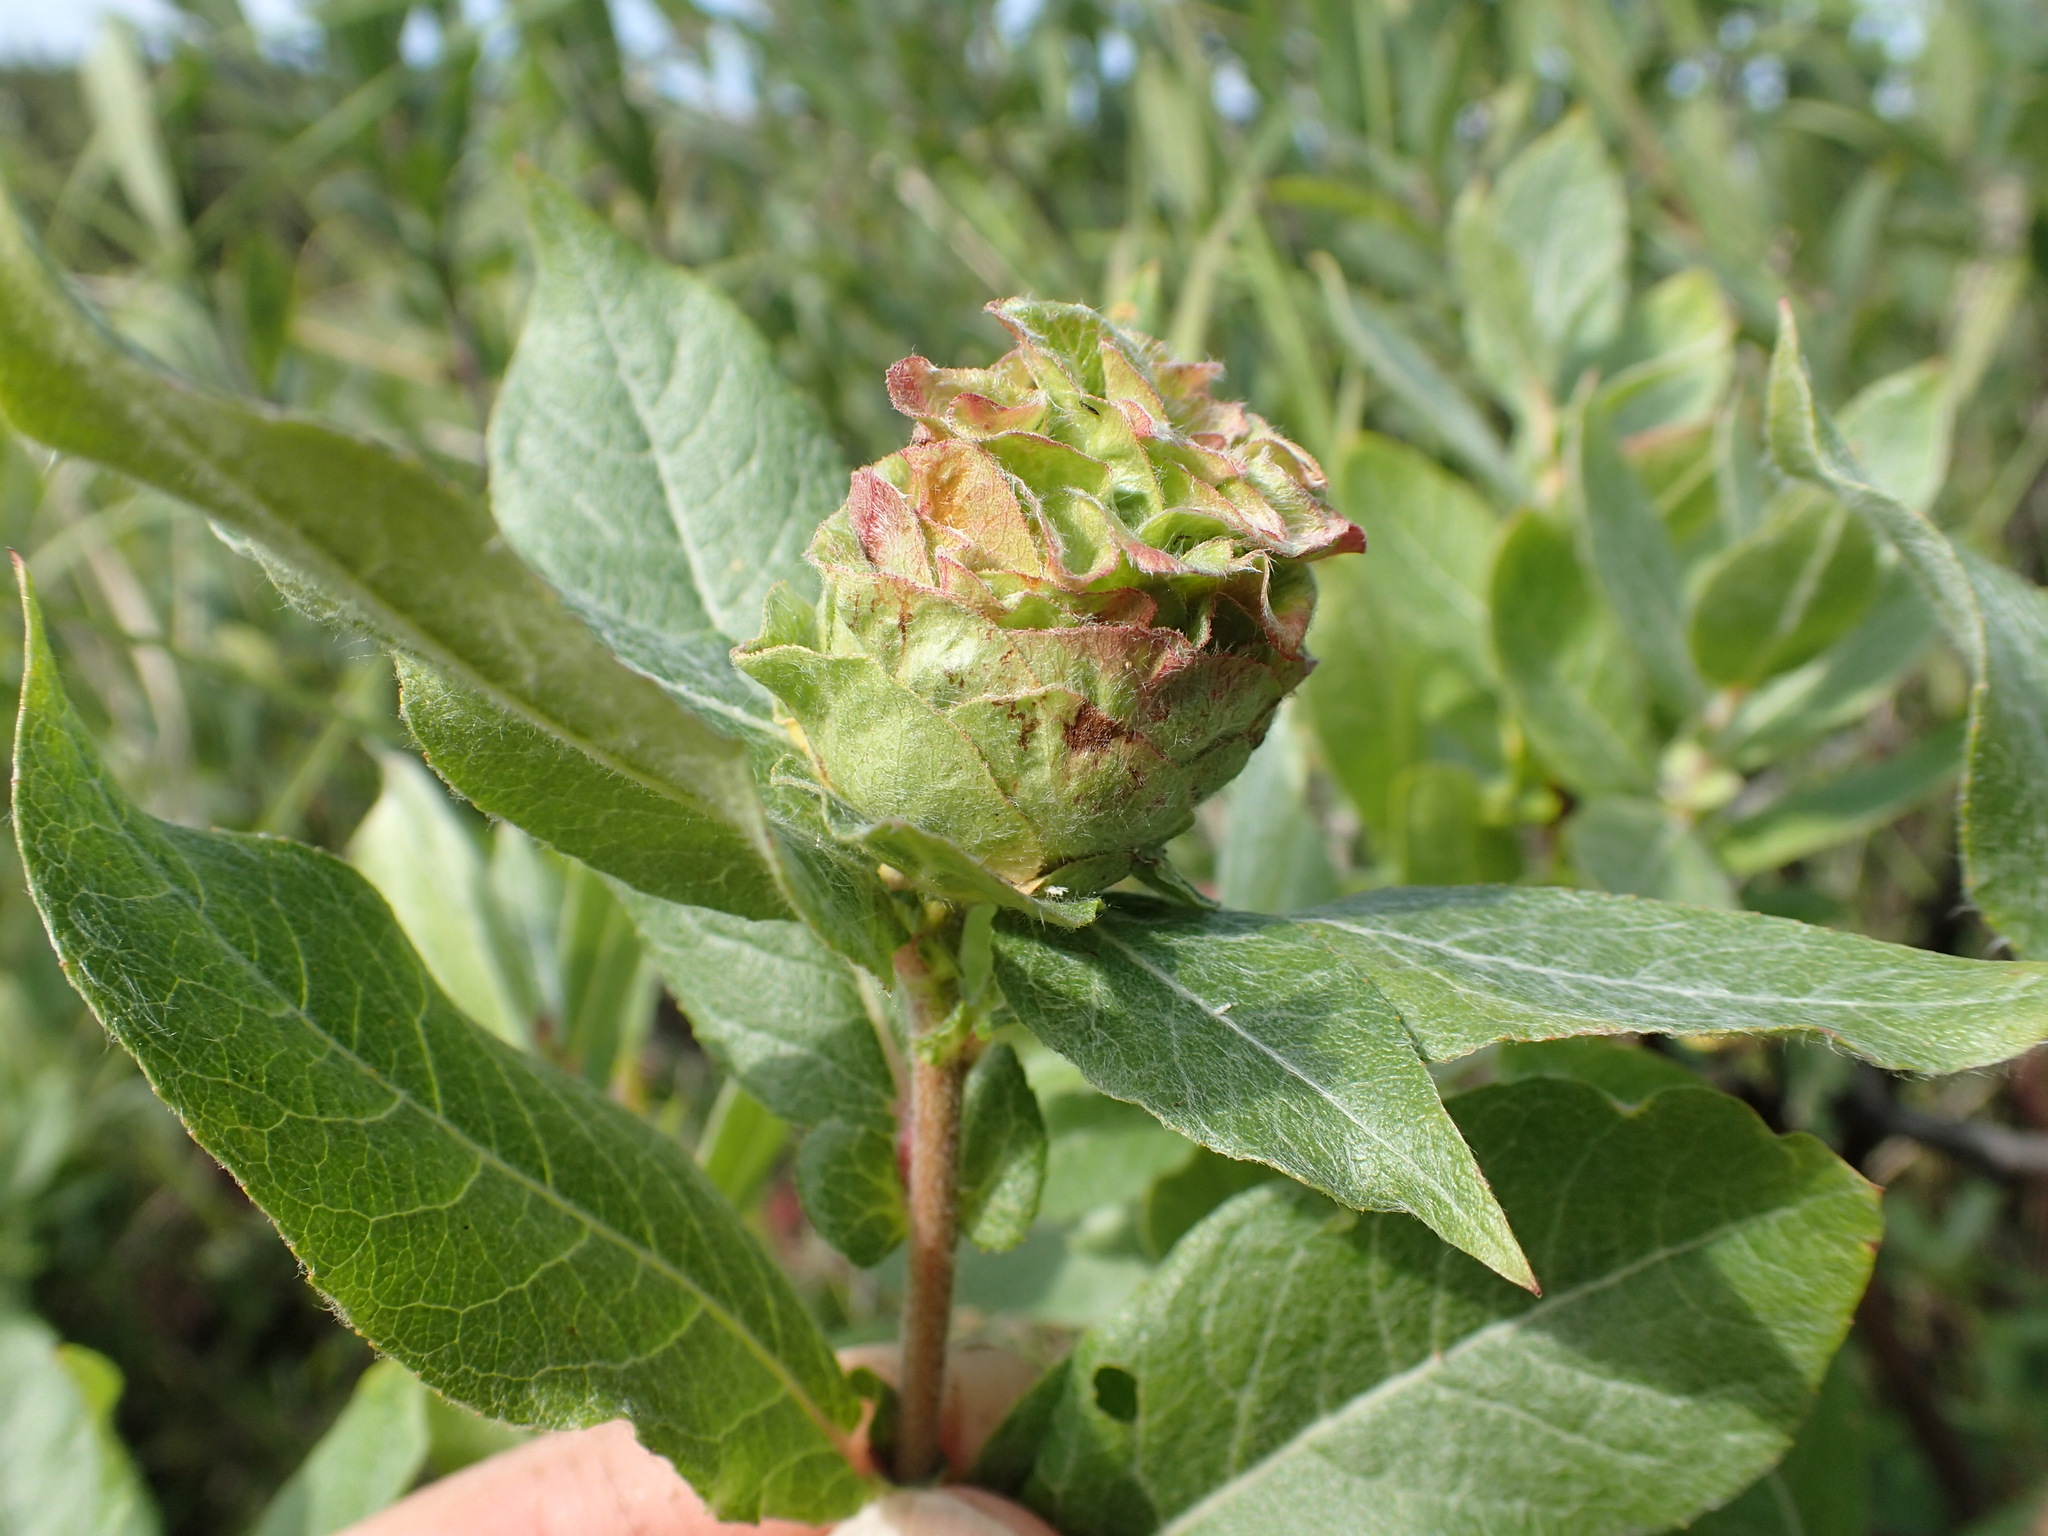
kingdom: Animalia
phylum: Arthropoda
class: Insecta
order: Diptera
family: Cecidomyiidae
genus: Rabdophaga
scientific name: Rabdophaga strobiloides
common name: Willow pinecone gall midge
